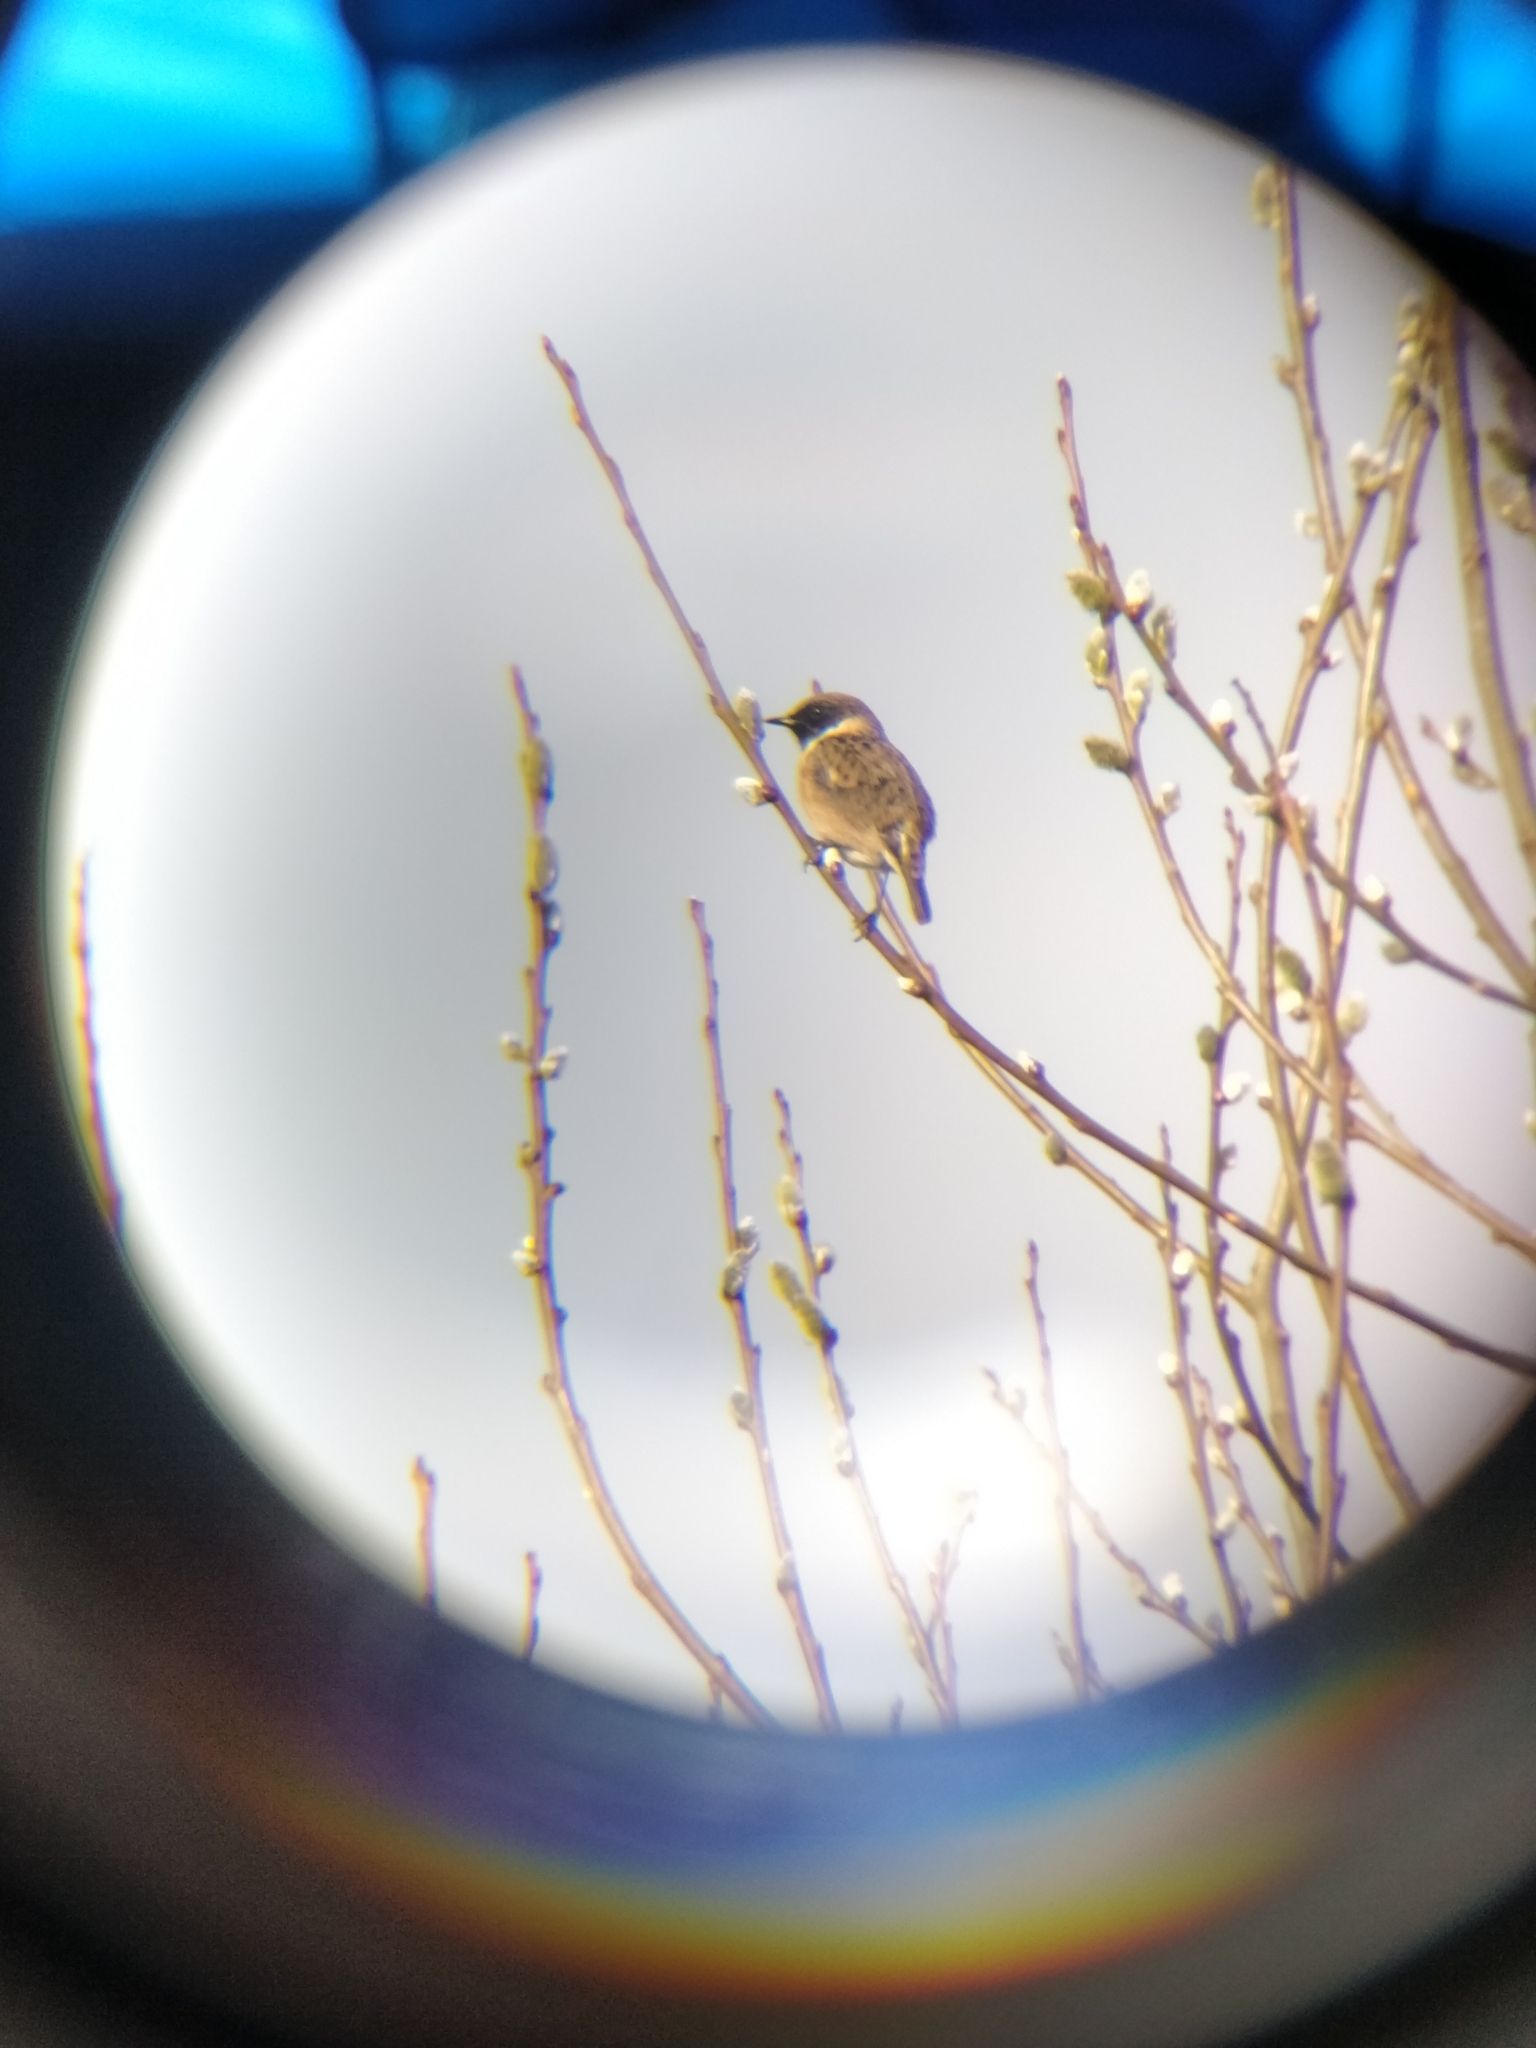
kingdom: Animalia
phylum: Chordata
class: Aves
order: Passeriformes
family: Muscicapidae
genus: Saxicola
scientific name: Saxicola rubicola
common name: European stonechat
